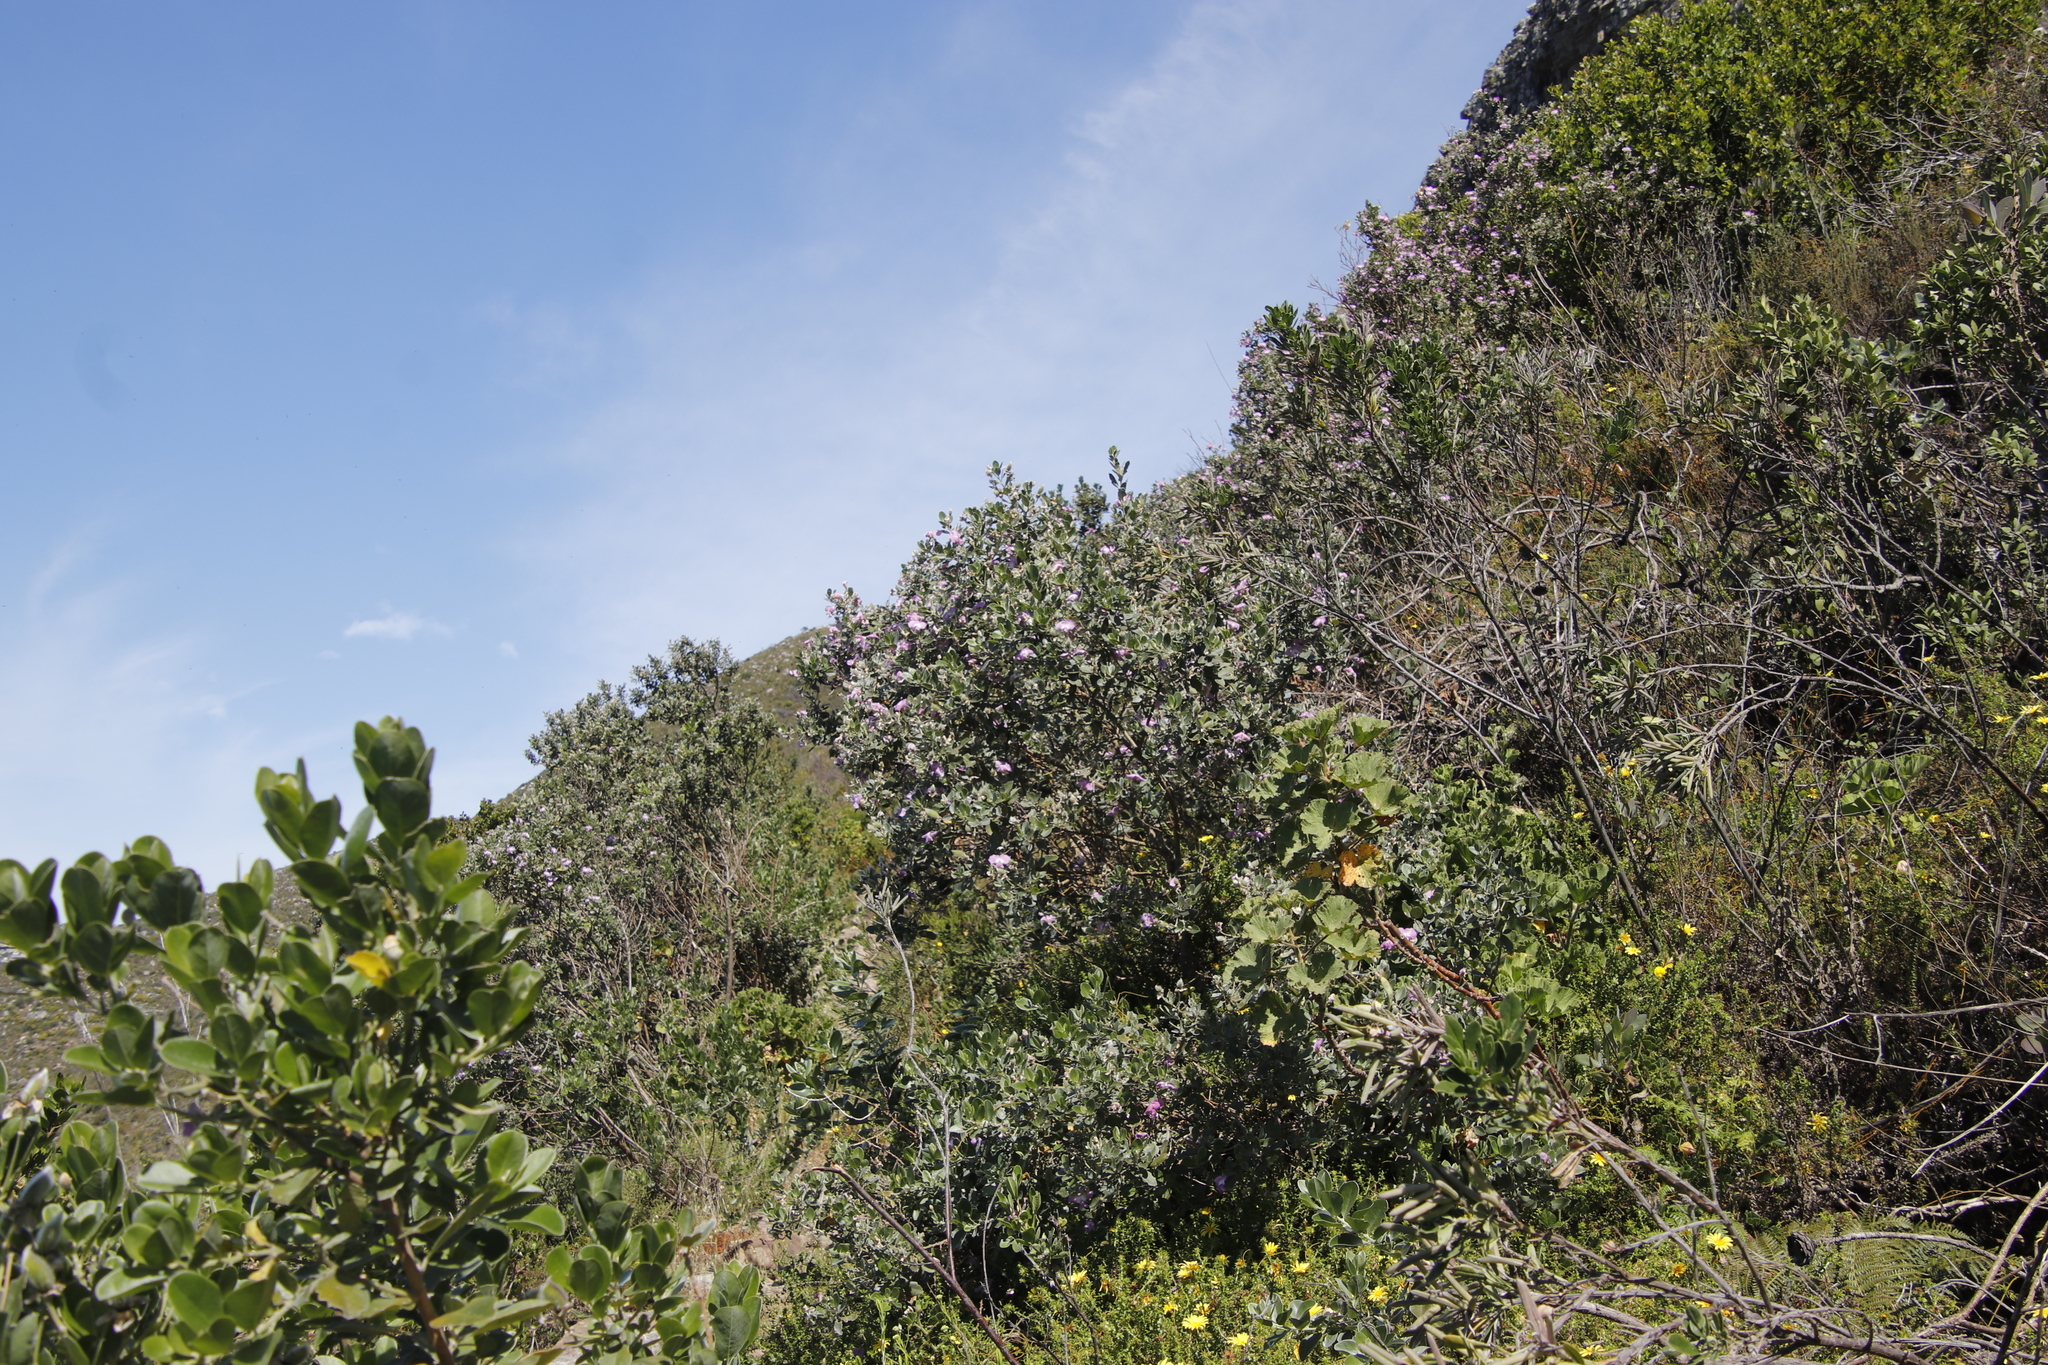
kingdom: Plantae
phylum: Tracheophyta
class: Magnoliopsida
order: Fabales
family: Fabaceae
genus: Podalyria
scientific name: Podalyria calyptrata
